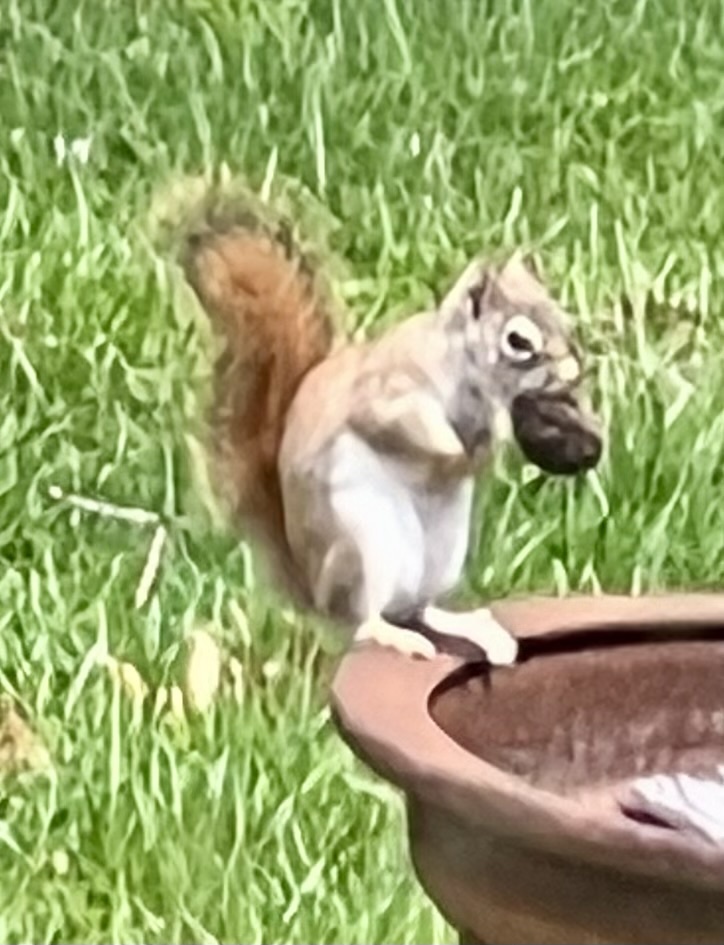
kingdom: Animalia
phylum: Chordata
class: Mammalia
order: Rodentia
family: Sciuridae
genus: Tamiasciurus
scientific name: Tamiasciurus hudsonicus
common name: Red squirrel
